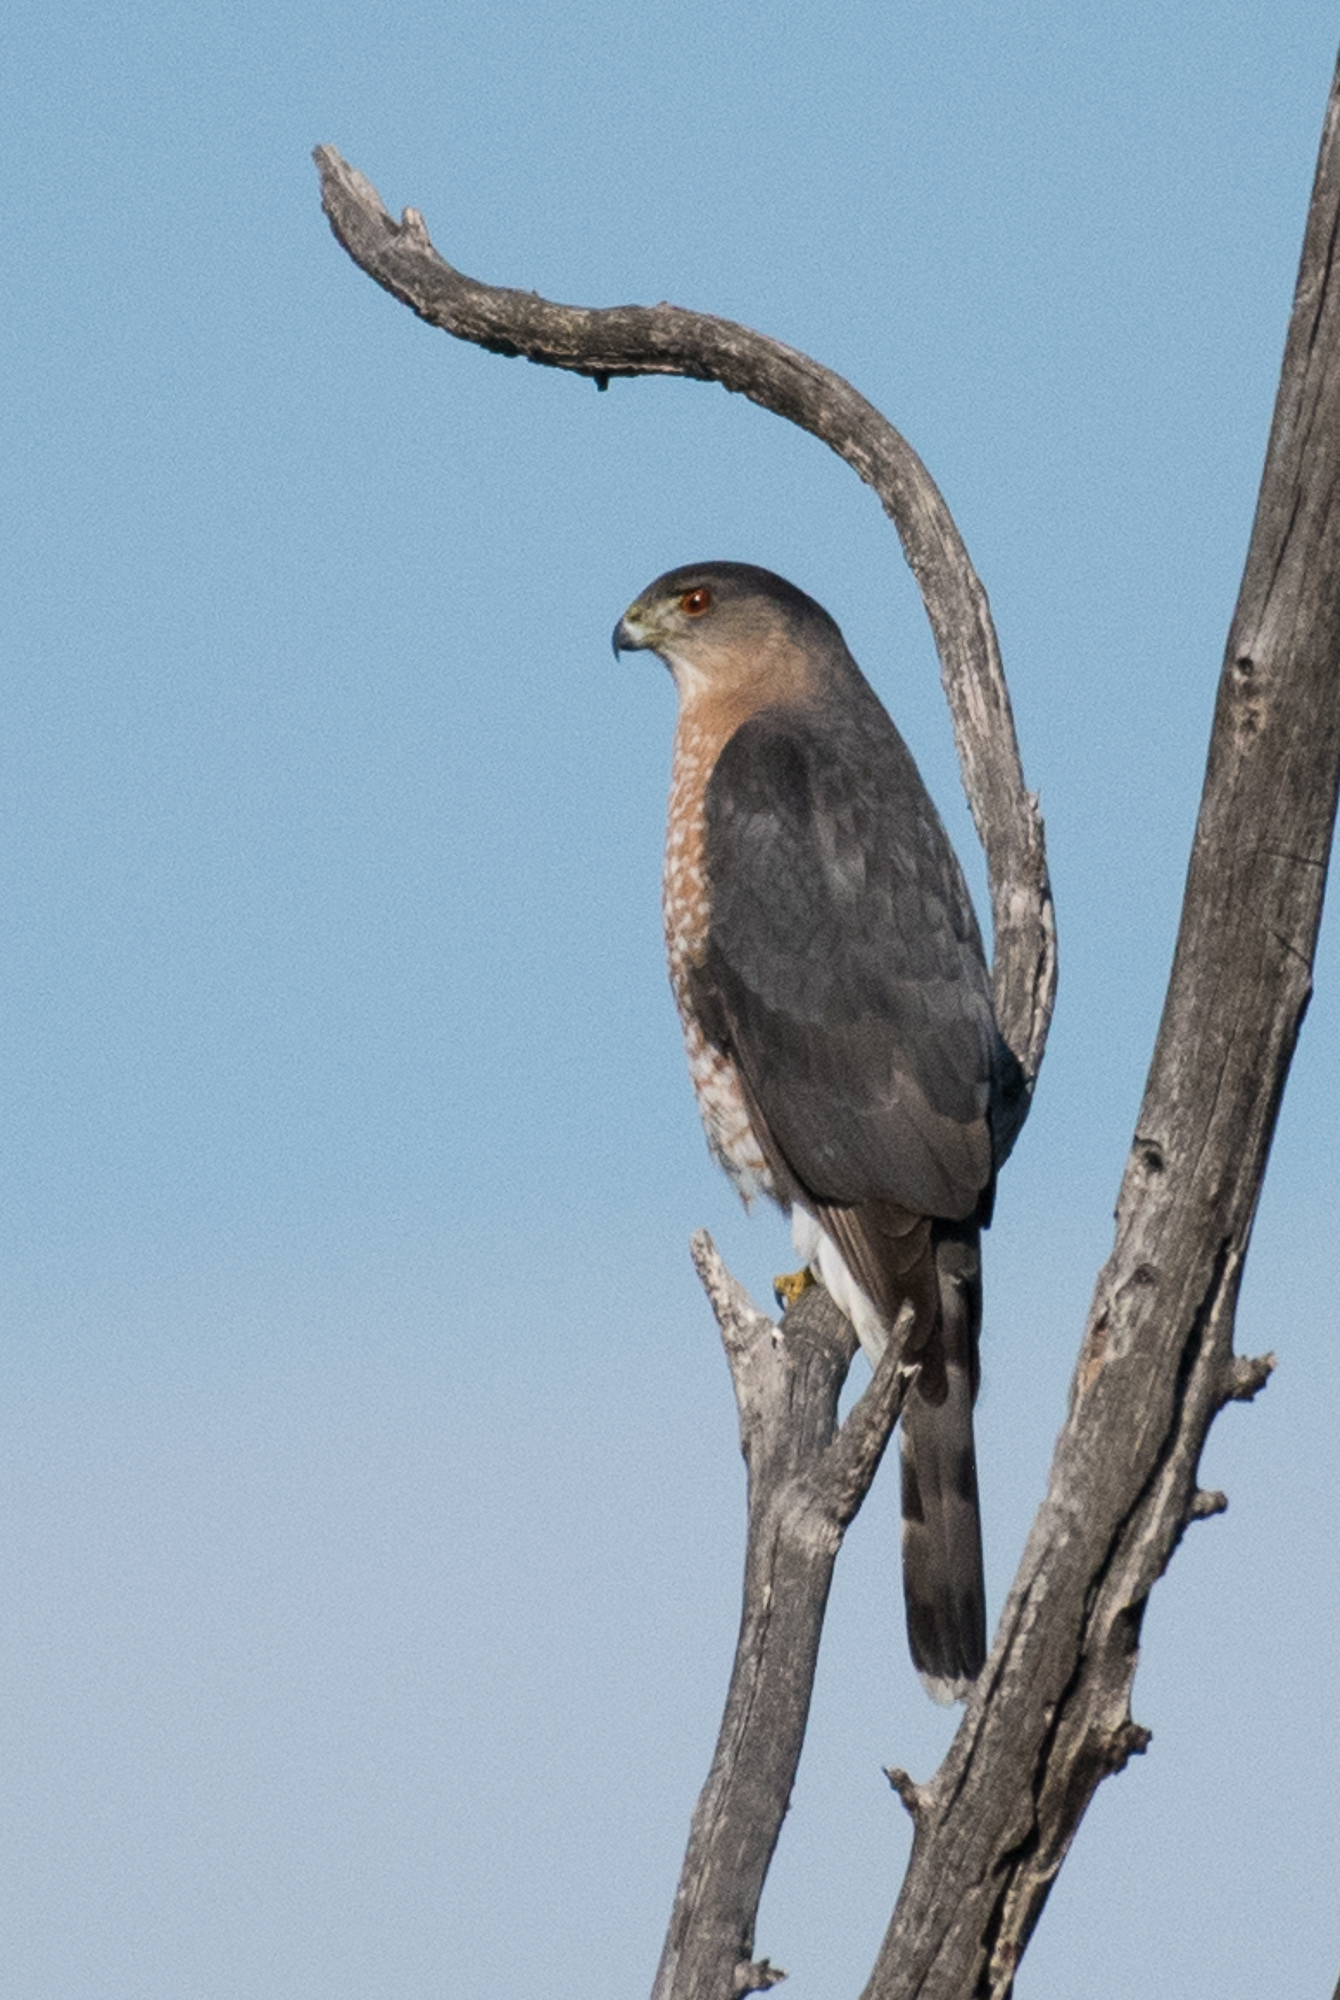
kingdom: Animalia
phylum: Chordata
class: Aves
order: Accipitriformes
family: Accipitridae
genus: Accipiter
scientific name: Accipiter cooperii
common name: Cooper's hawk
